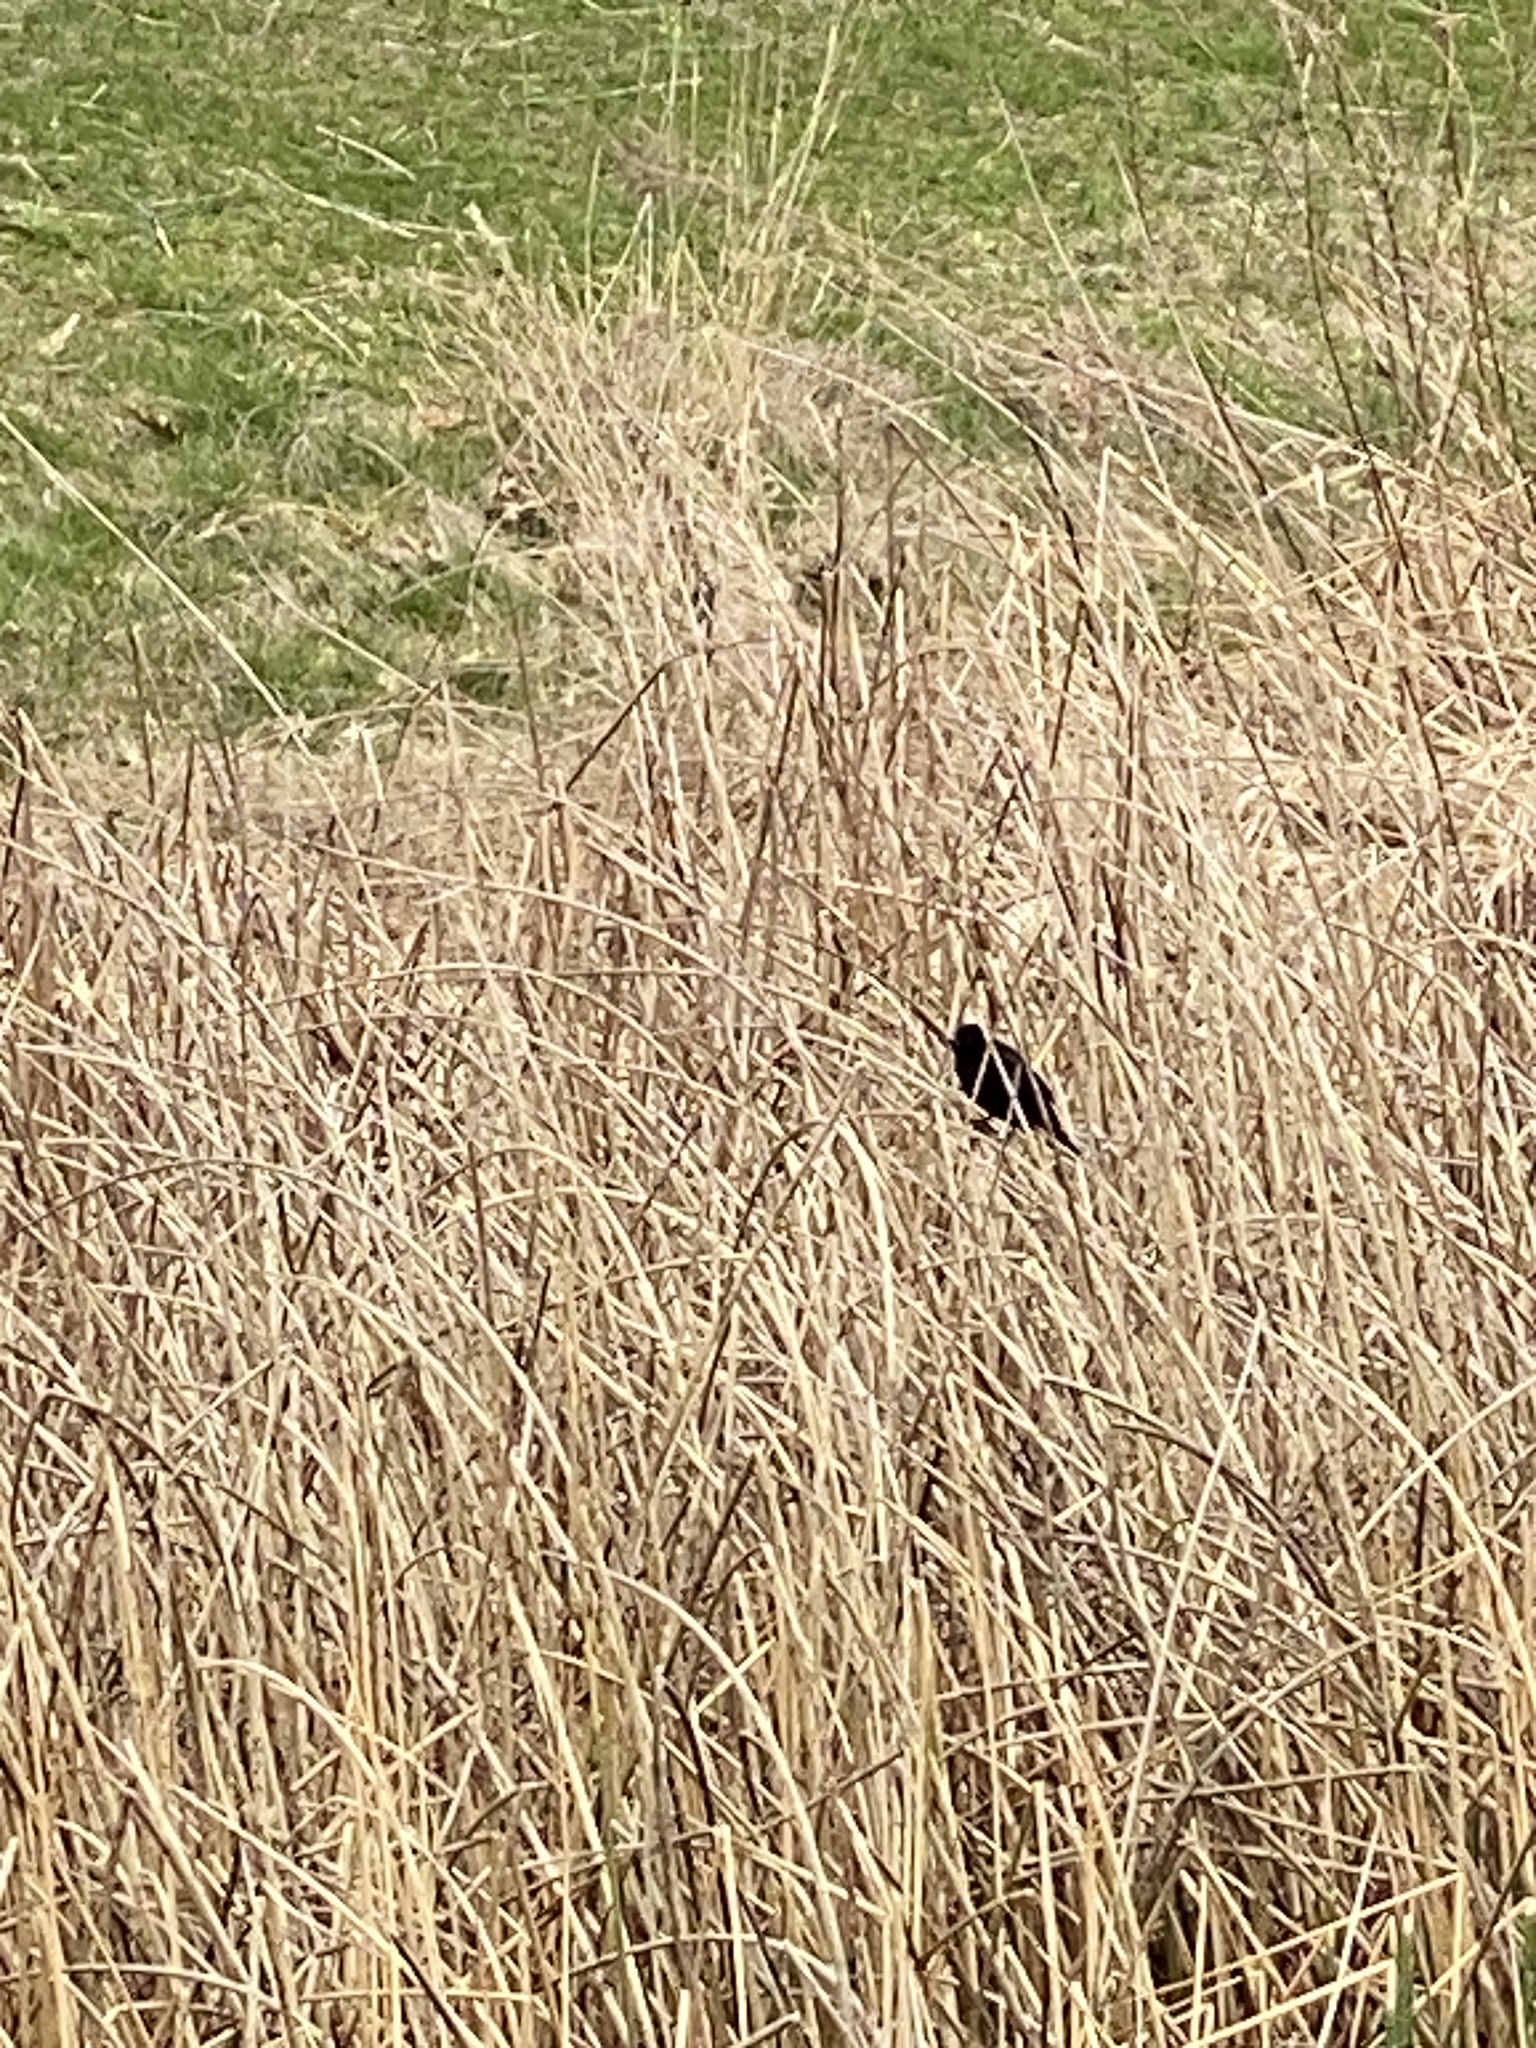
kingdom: Animalia
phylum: Chordata
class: Aves
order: Passeriformes
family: Icteridae
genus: Agelaius
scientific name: Agelaius phoeniceus
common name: Red-winged blackbird
